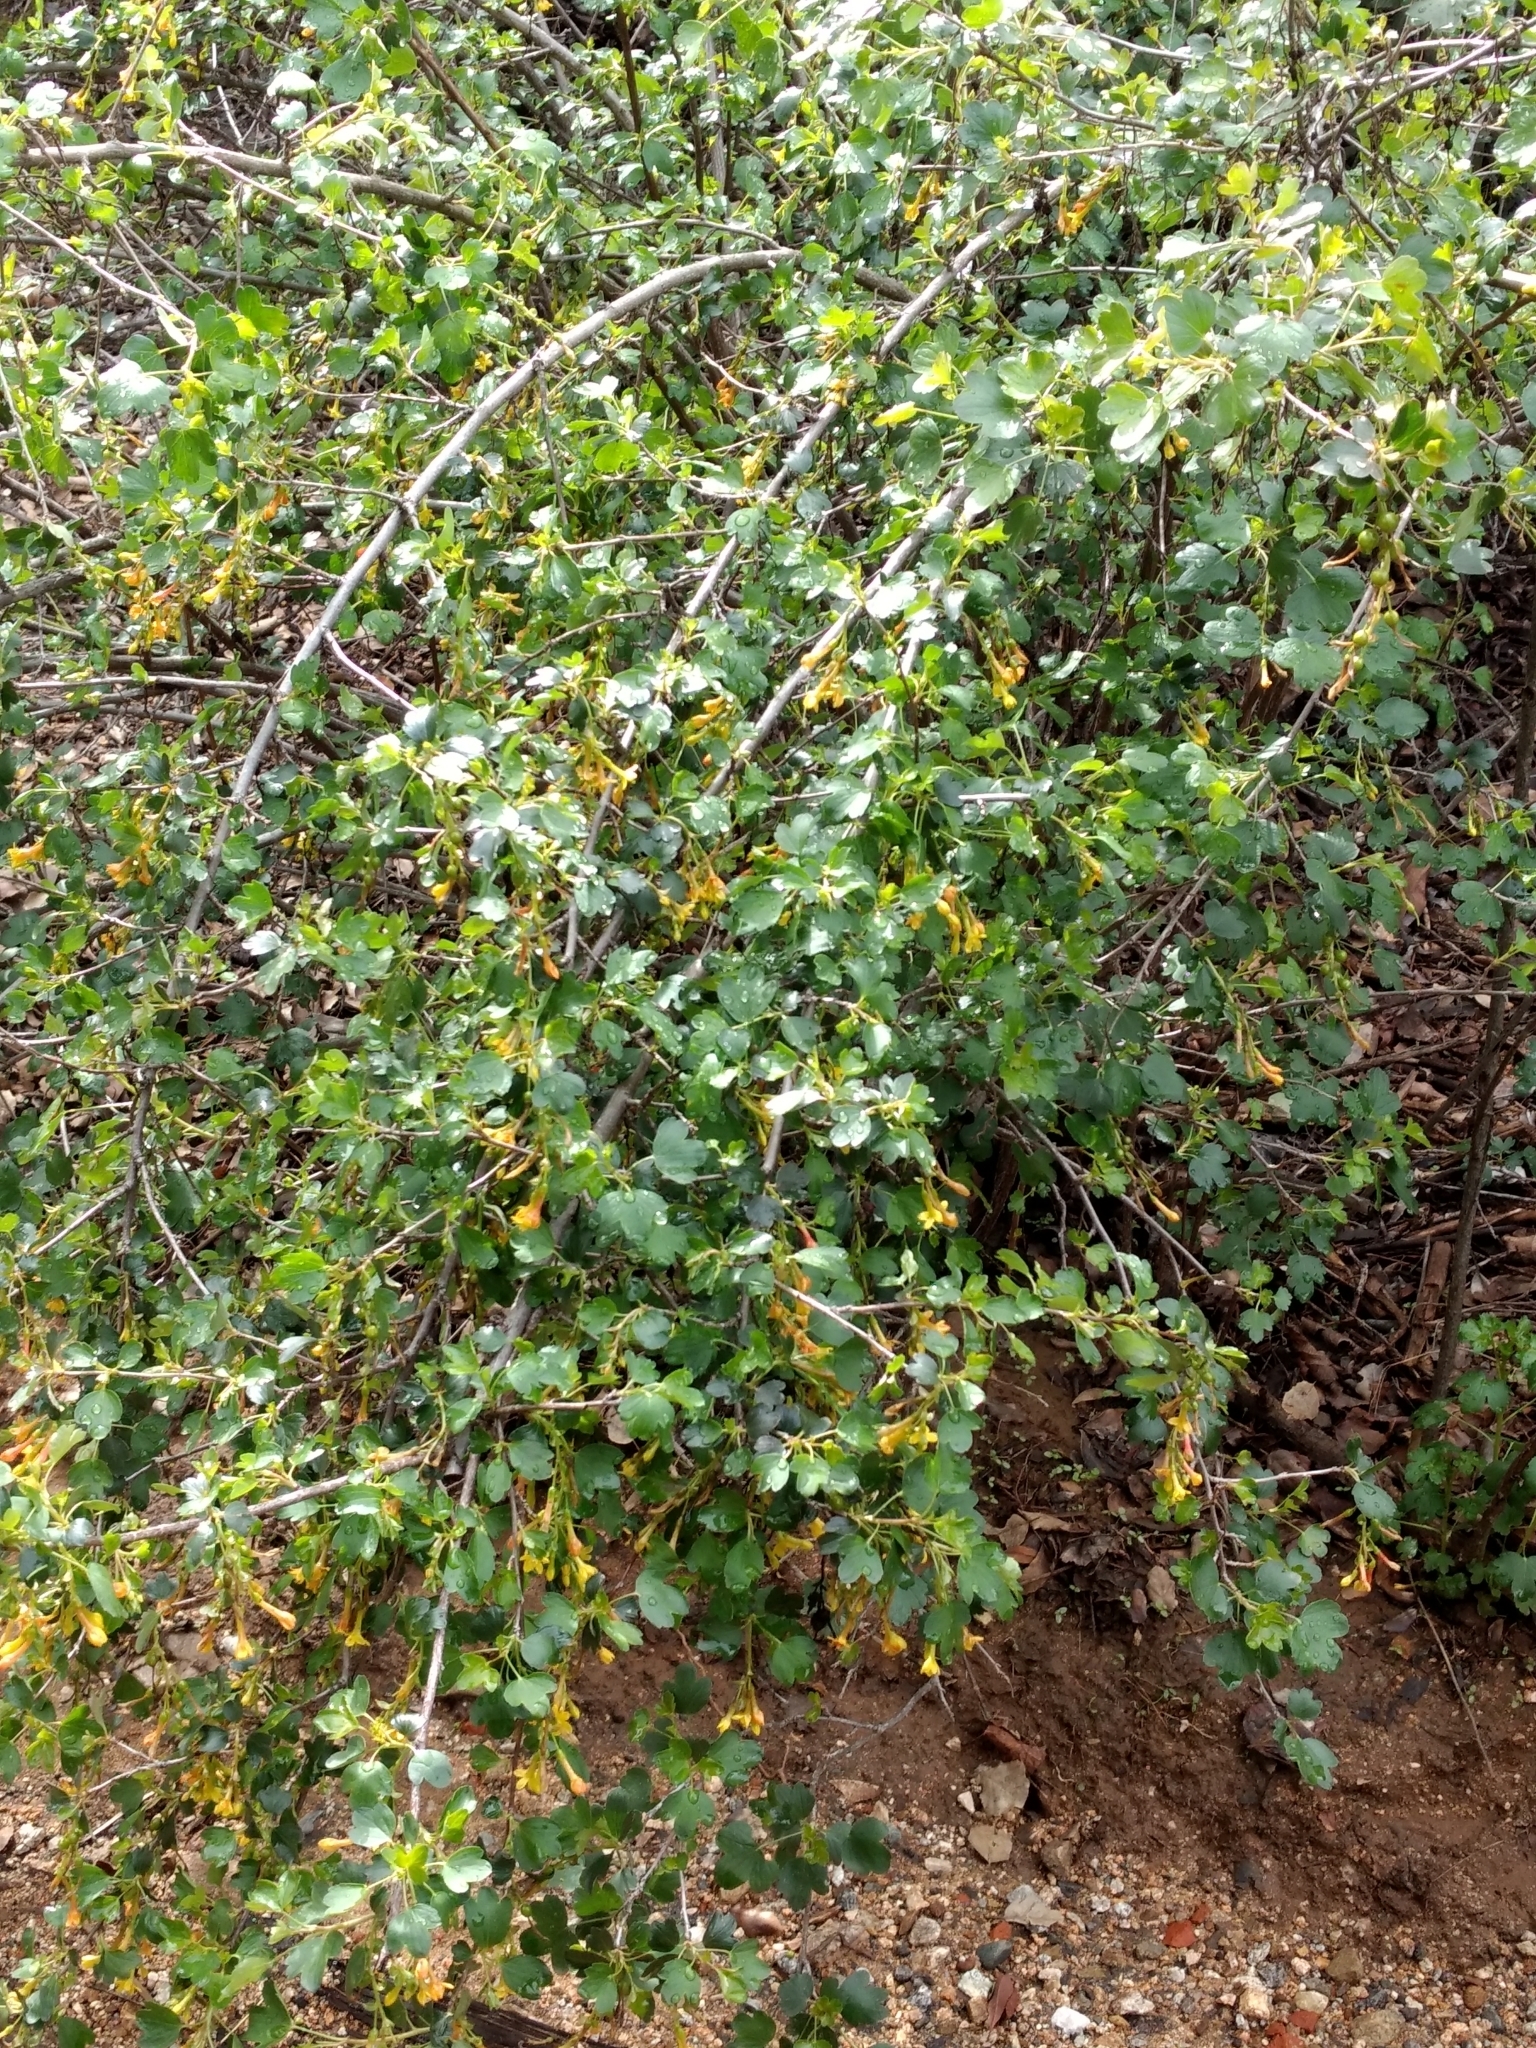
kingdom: Plantae
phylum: Tracheophyta
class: Magnoliopsida
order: Saxifragales
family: Grossulariaceae
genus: Ribes
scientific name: Ribes aureum
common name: Golden currant
